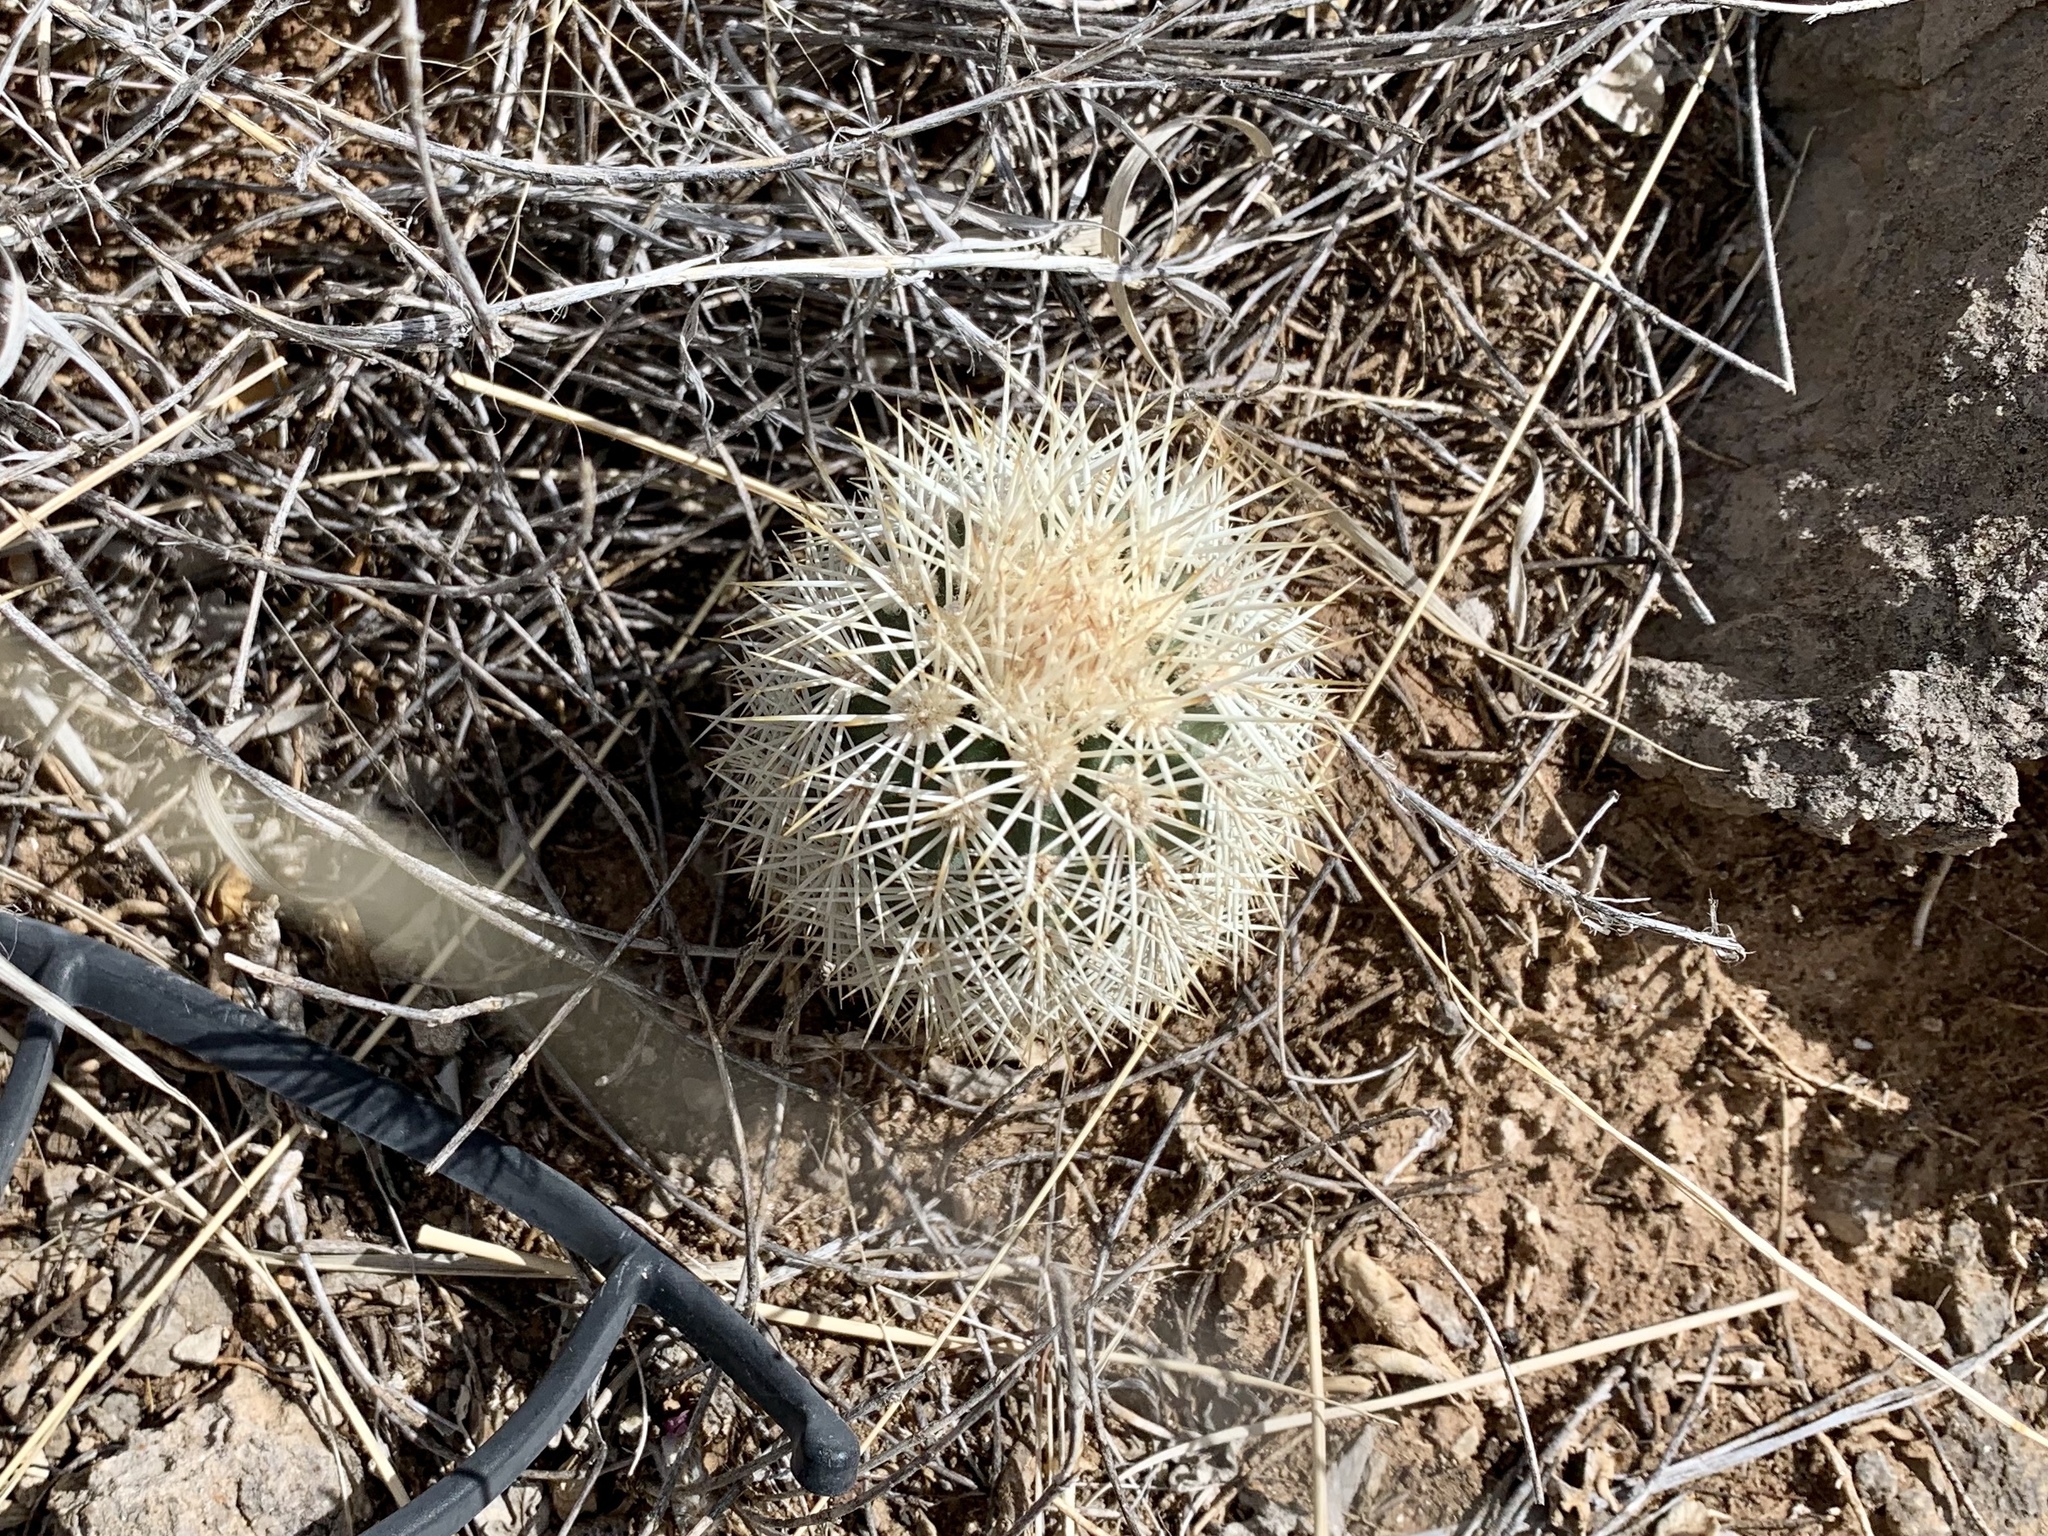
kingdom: Plantae
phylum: Tracheophyta
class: Magnoliopsida
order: Caryophyllales
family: Cactaceae
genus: Echinocereus
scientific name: Echinocereus dasyacanthus
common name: Spiny hedgehog cactus
